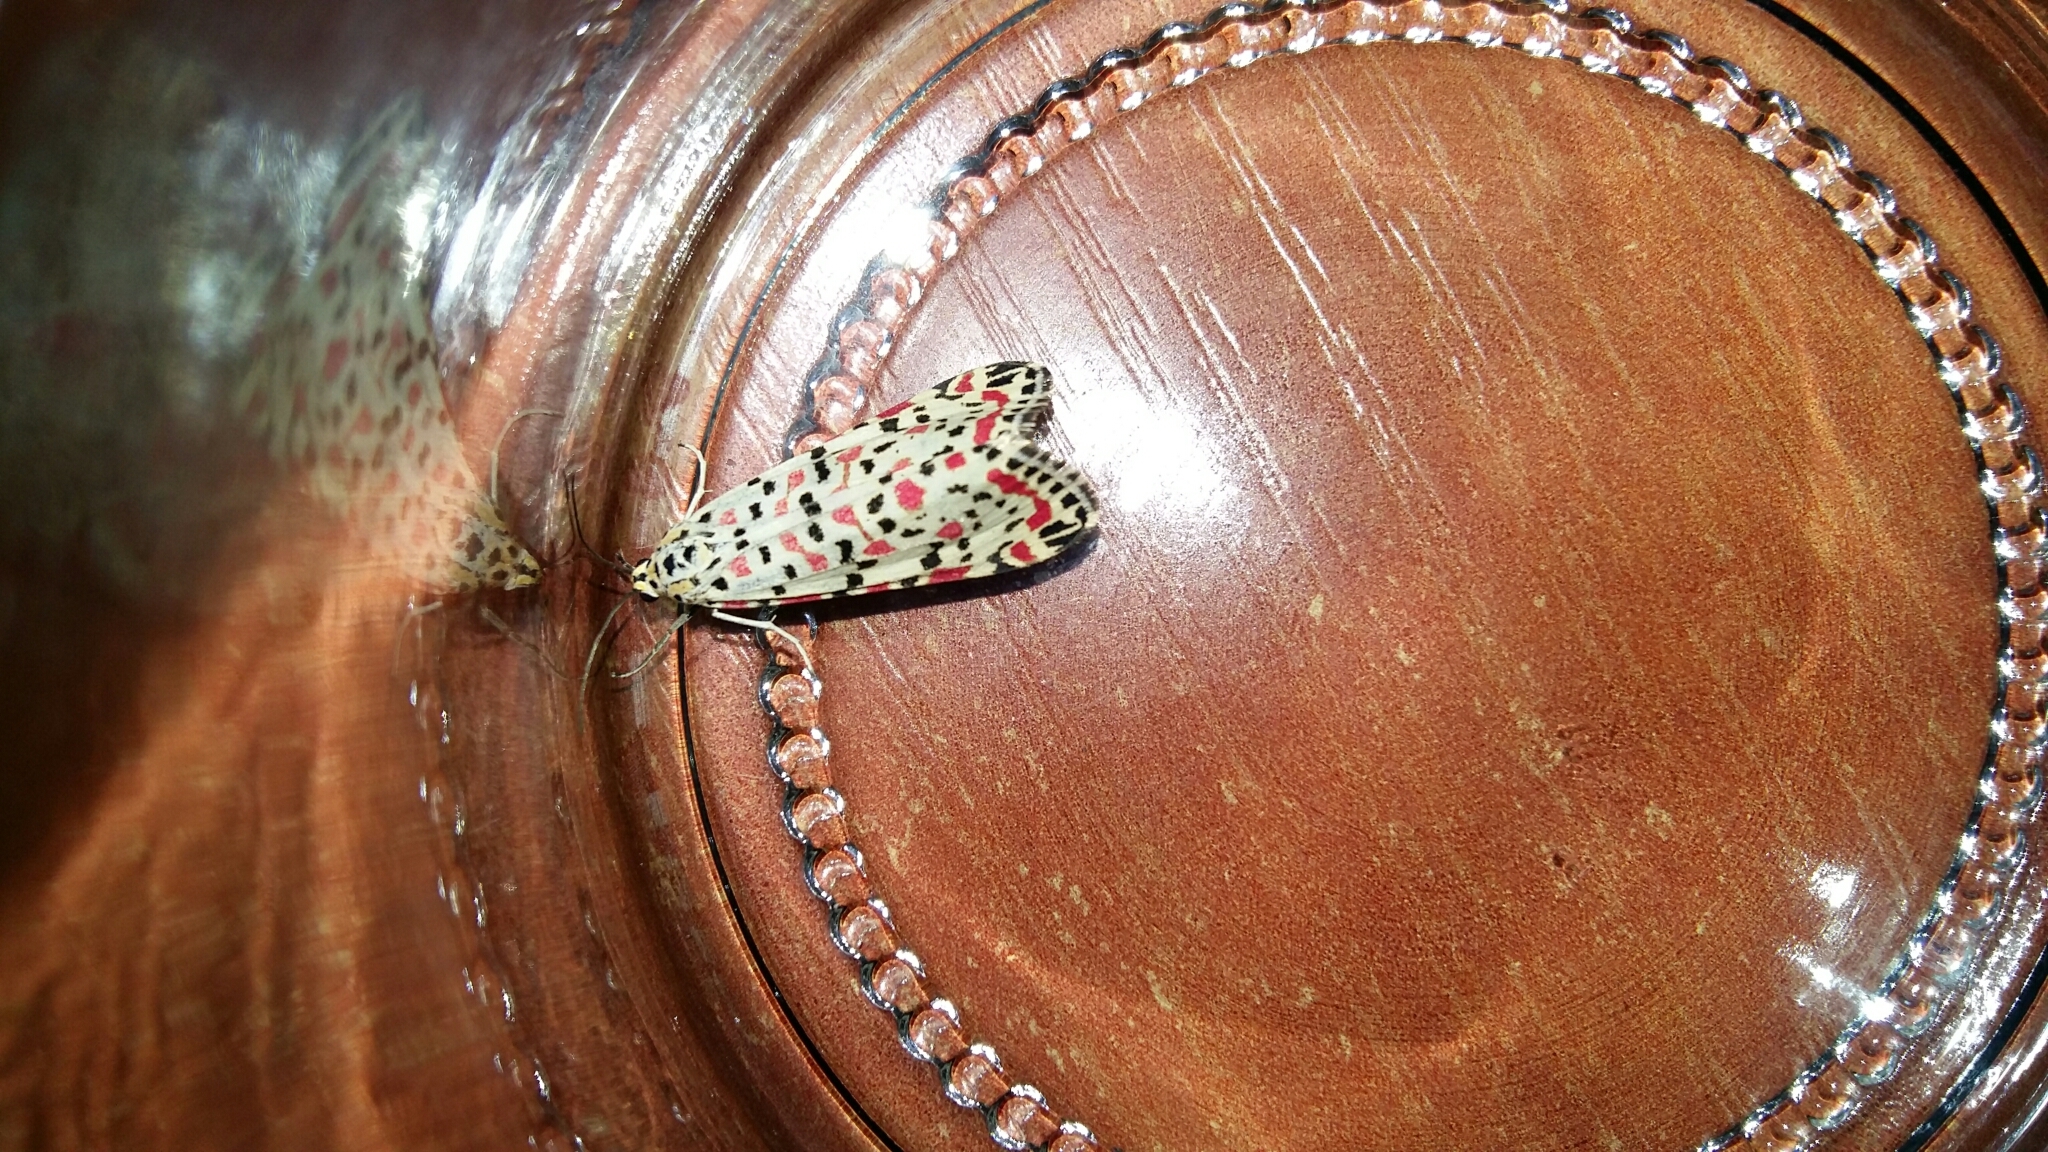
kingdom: Animalia
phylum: Arthropoda
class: Insecta
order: Lepidoptera
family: Erebidae
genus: Utetheisa
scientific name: Utetheisa pulchella
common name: Crimson speckled
